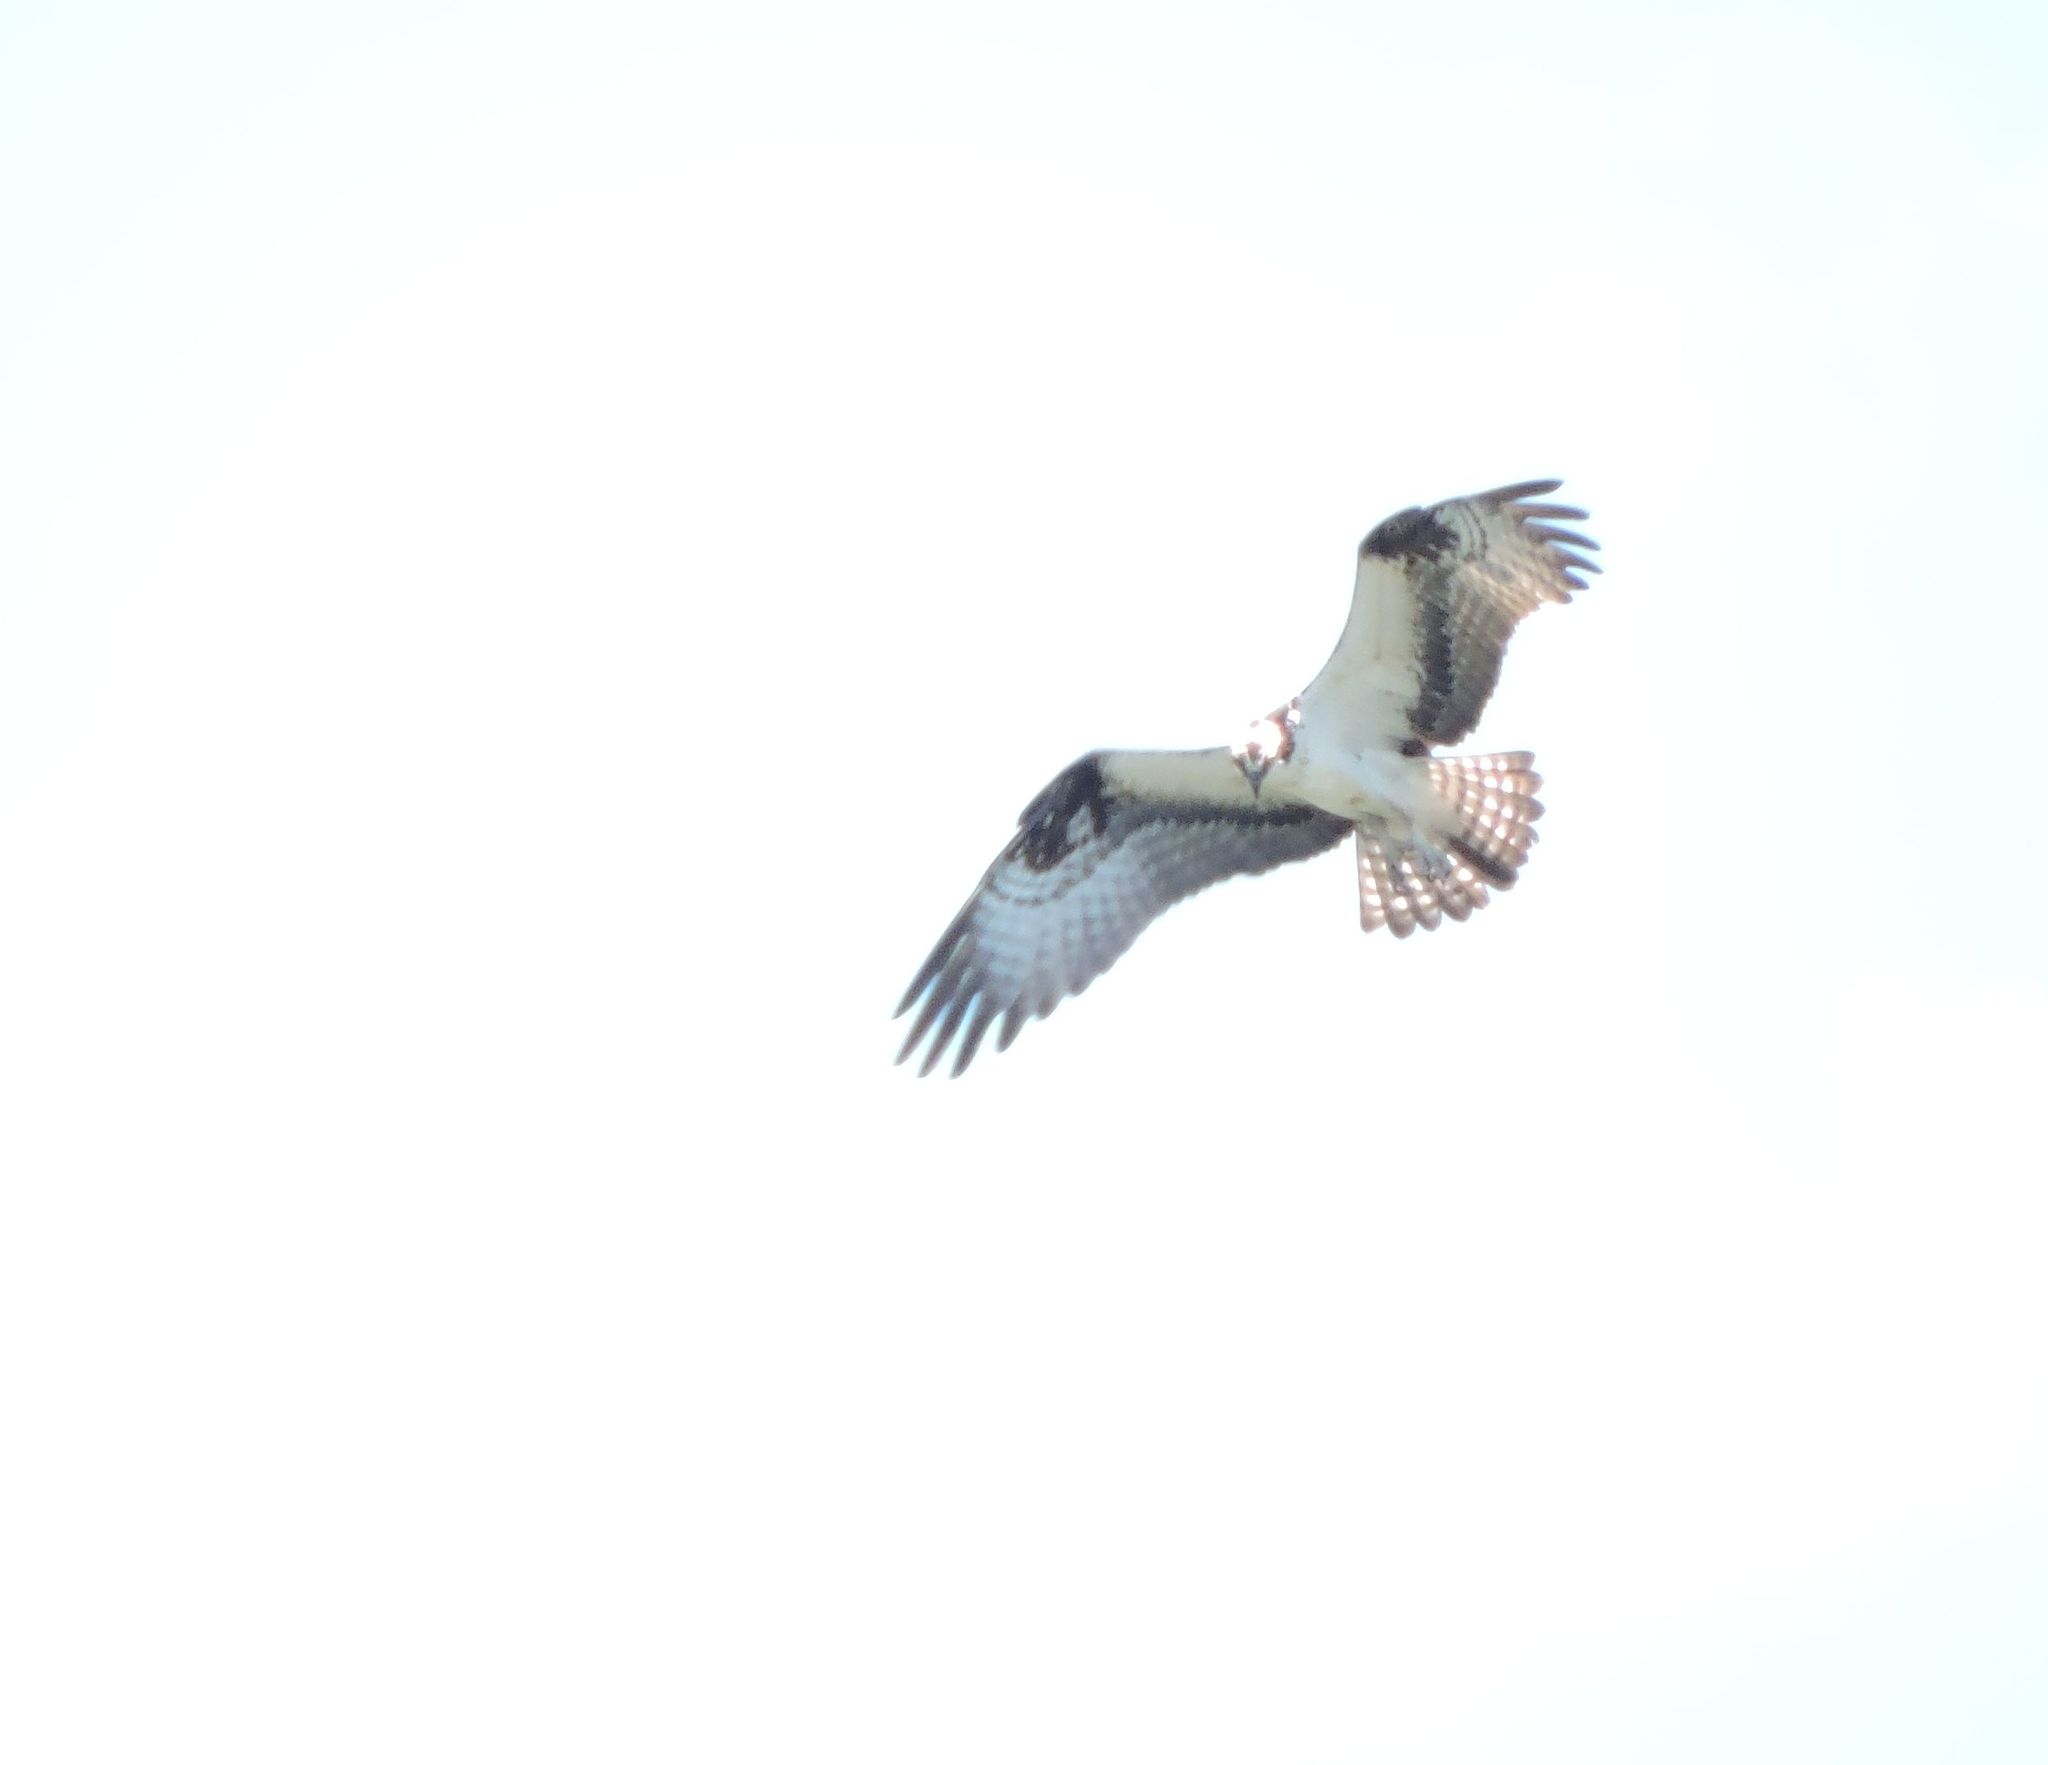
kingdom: Animalia
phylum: Chordata
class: Aves
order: Accipitriformes
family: Pandionidae
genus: Pandion
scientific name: Pandion haliaetus
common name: Osprey
